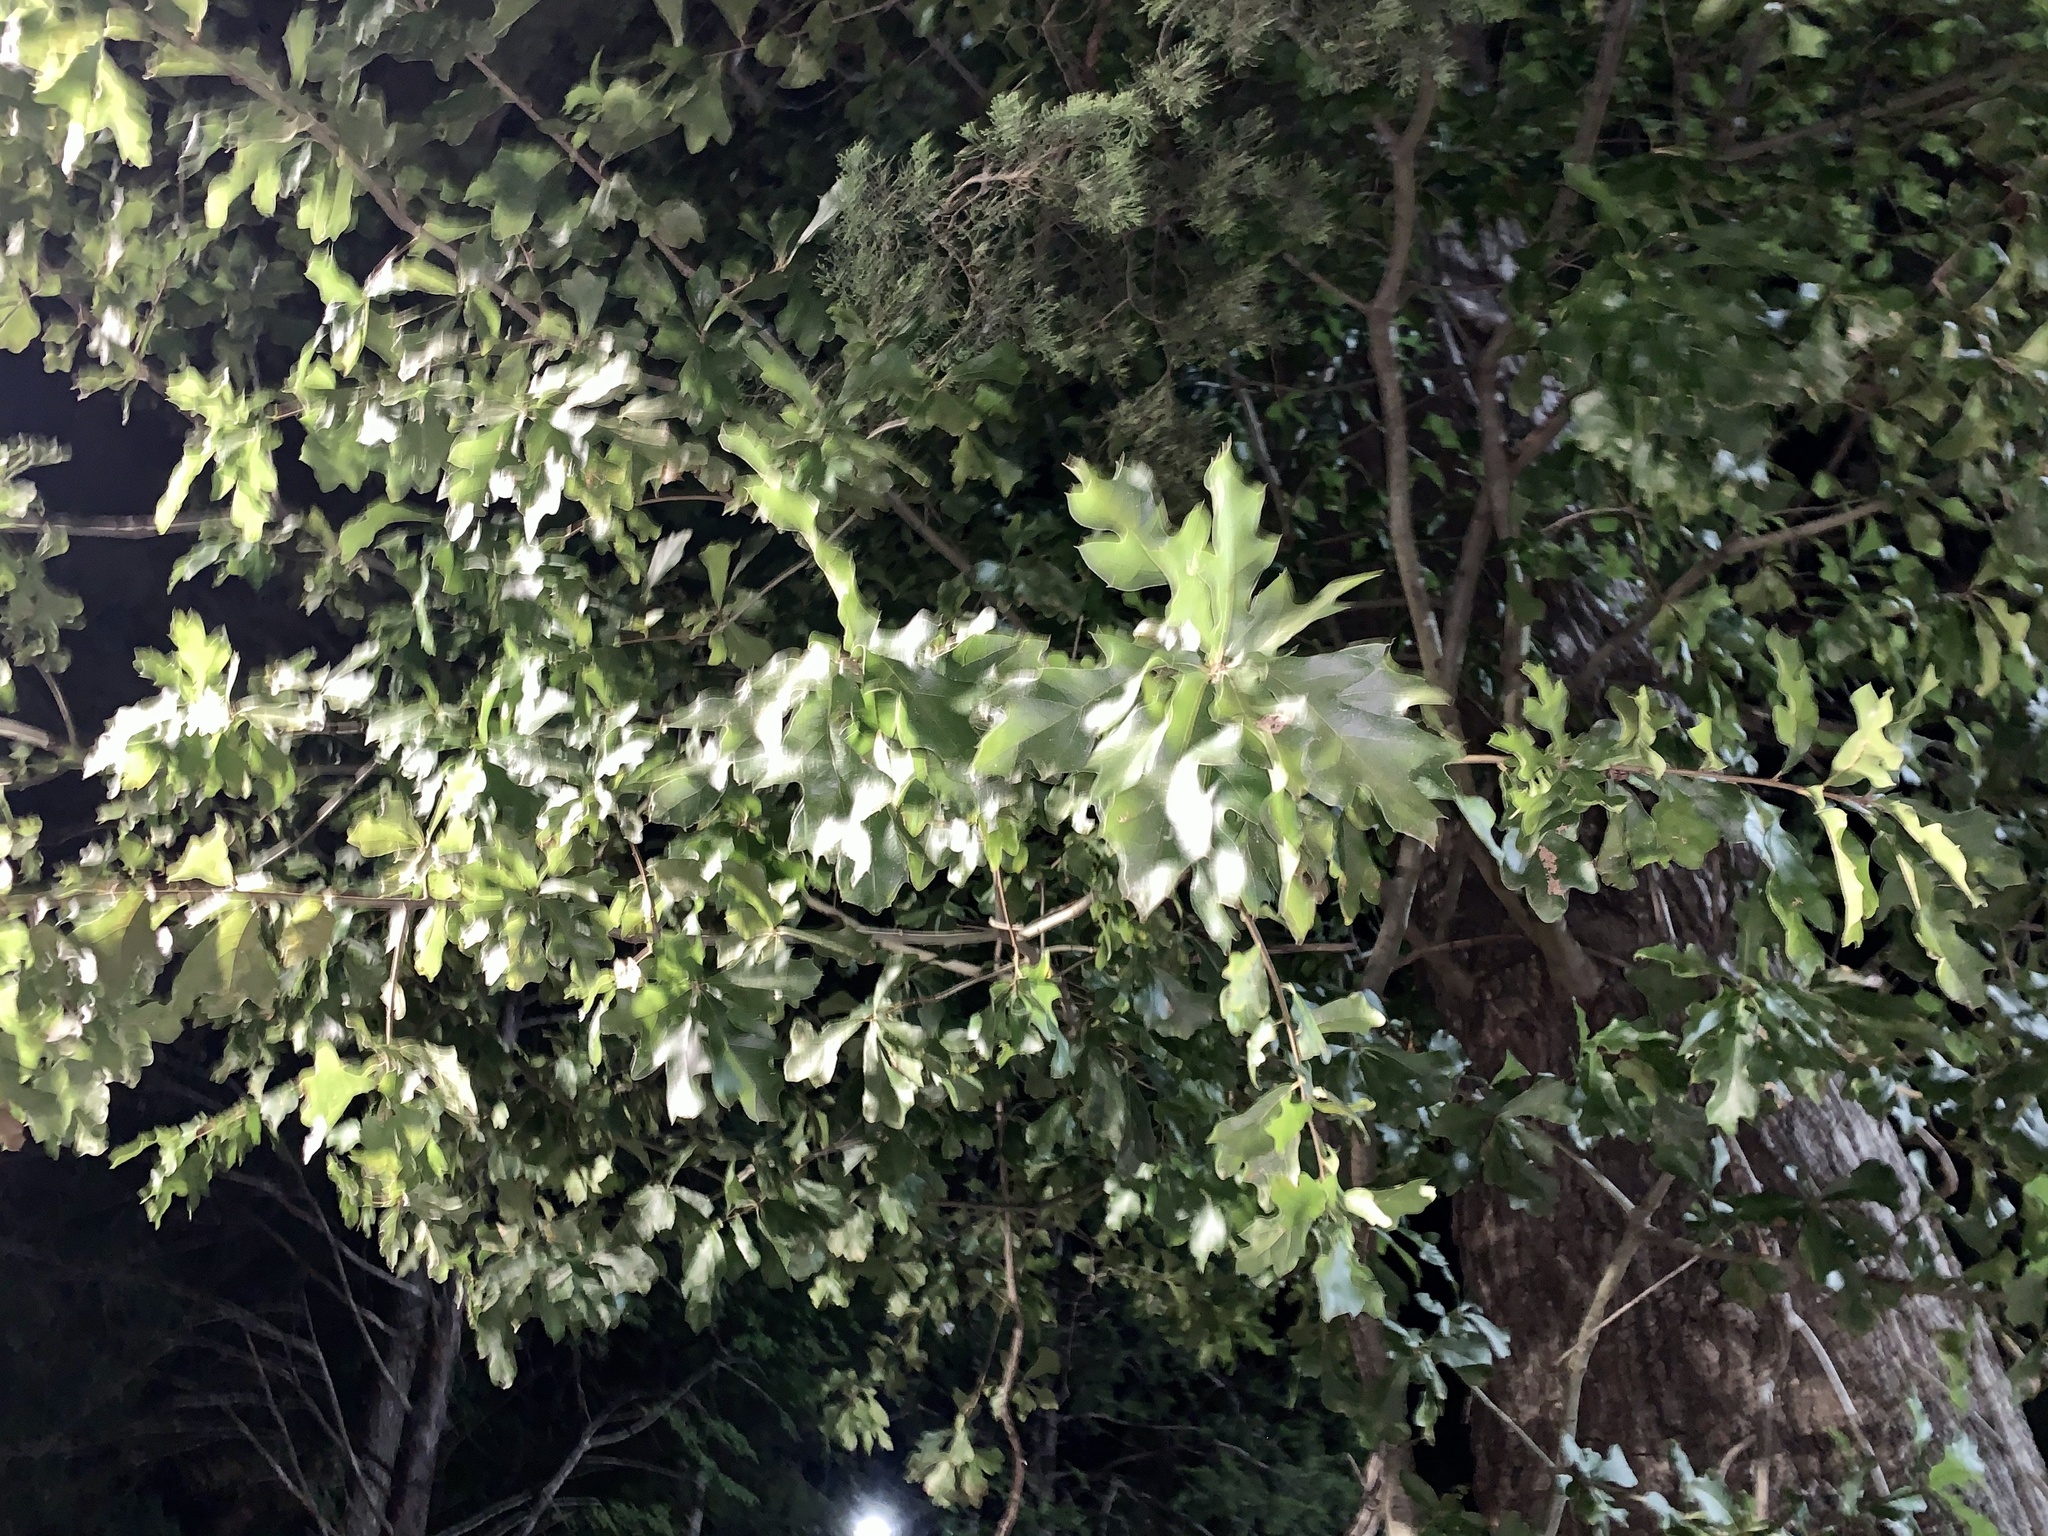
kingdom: Plantae
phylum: Tracheophyta
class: Magnoliopsida
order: Fagales
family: Fagaceae
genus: Quercus
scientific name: Quercus nigra
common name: Water oak
